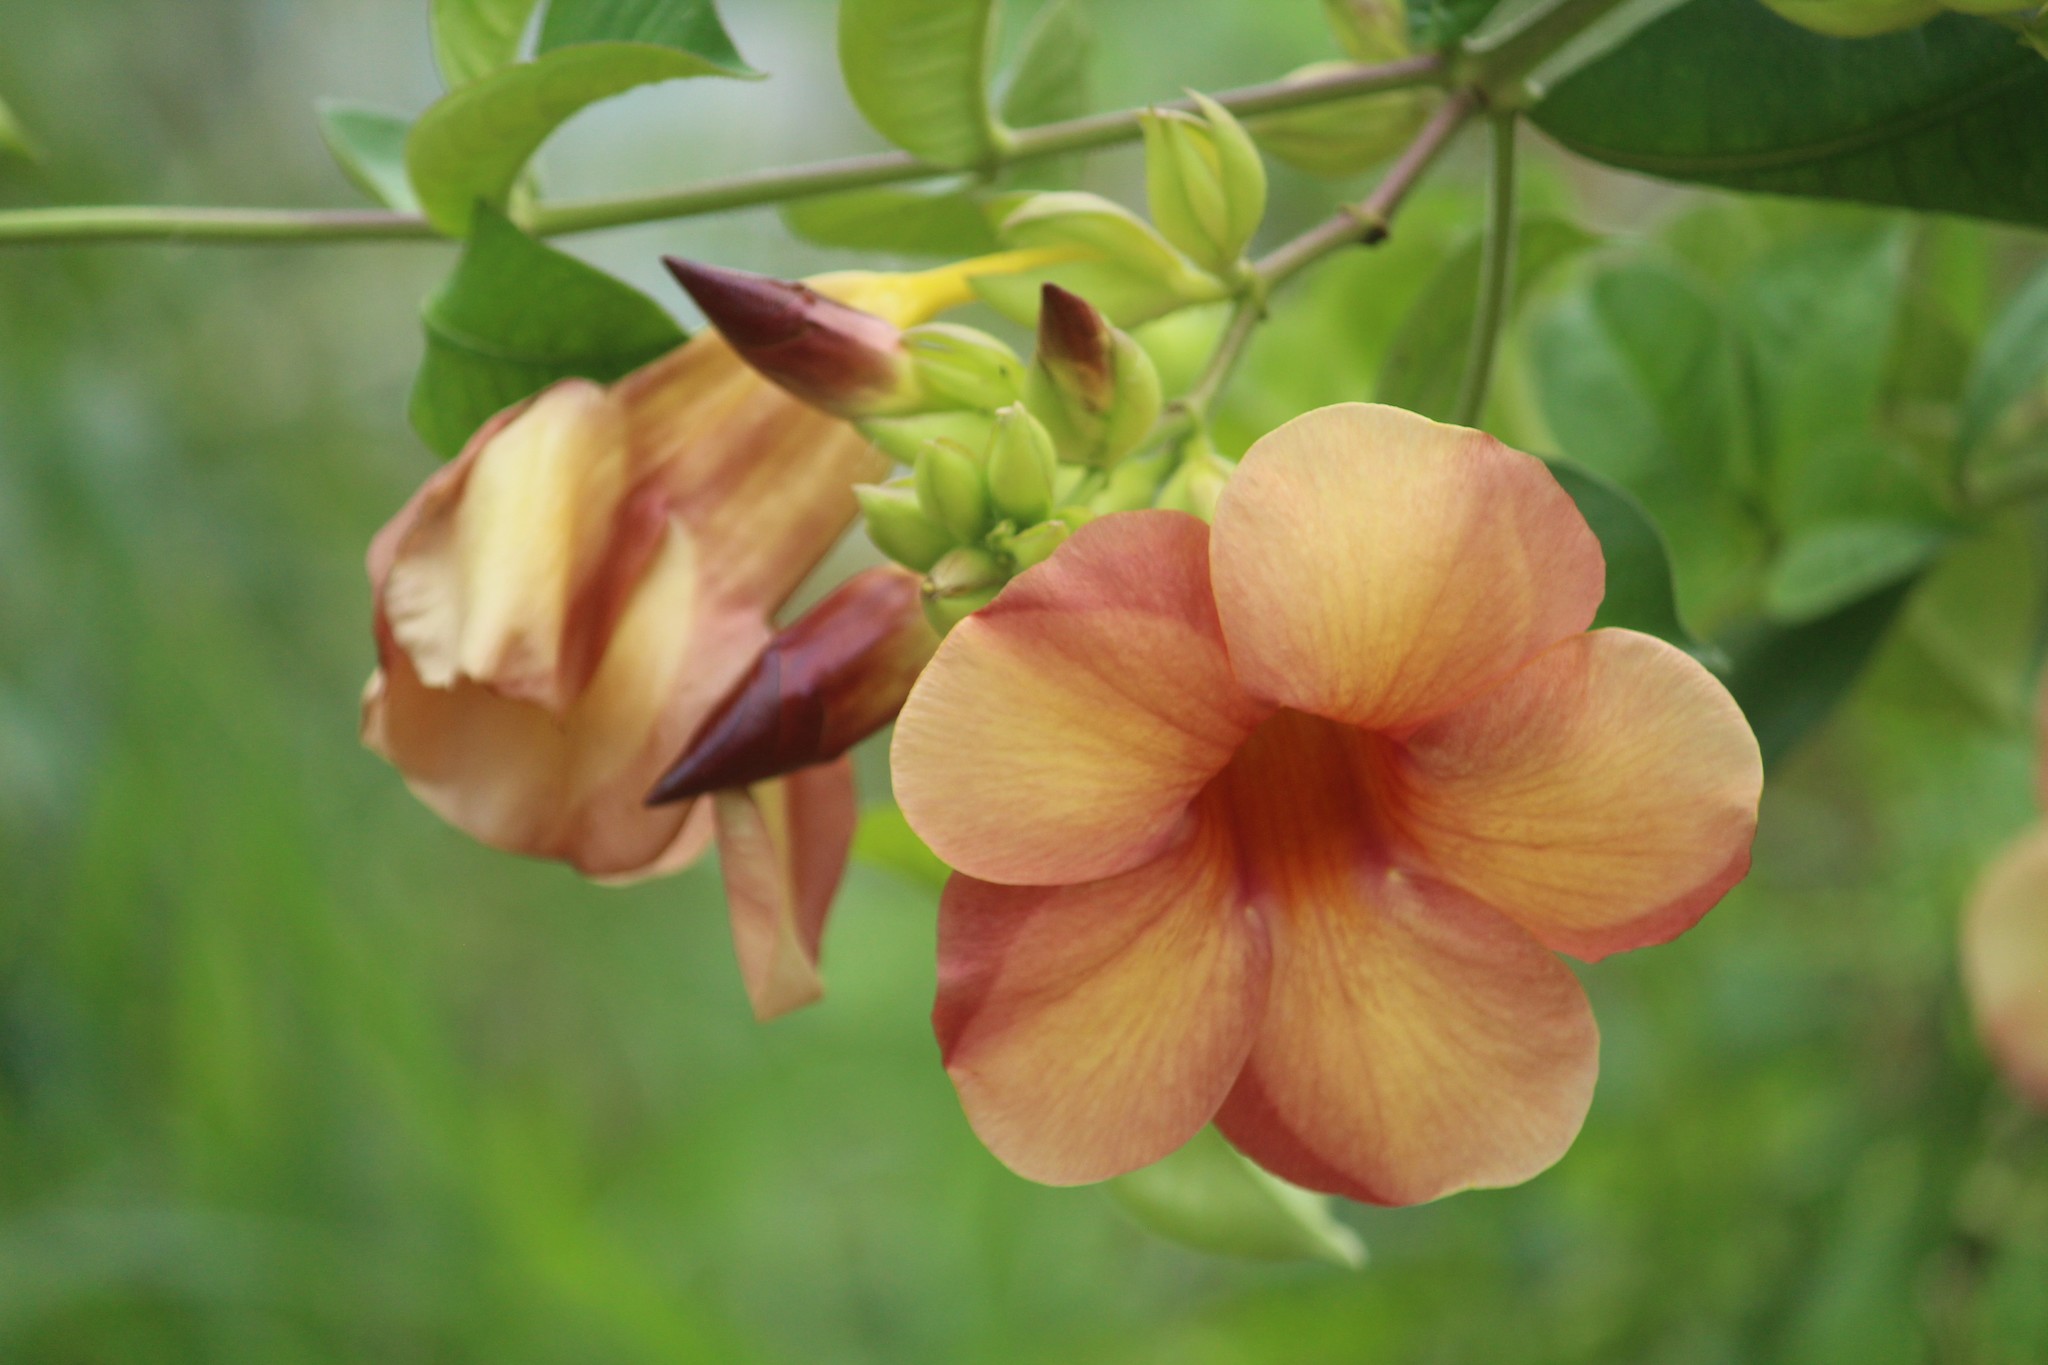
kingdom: Plantae
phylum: Tracheophyta
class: Magnoliopsida
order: Gentianales
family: Apocynaceae
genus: Allamanda
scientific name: Allamanda blanchetii
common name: Purple allamanda
